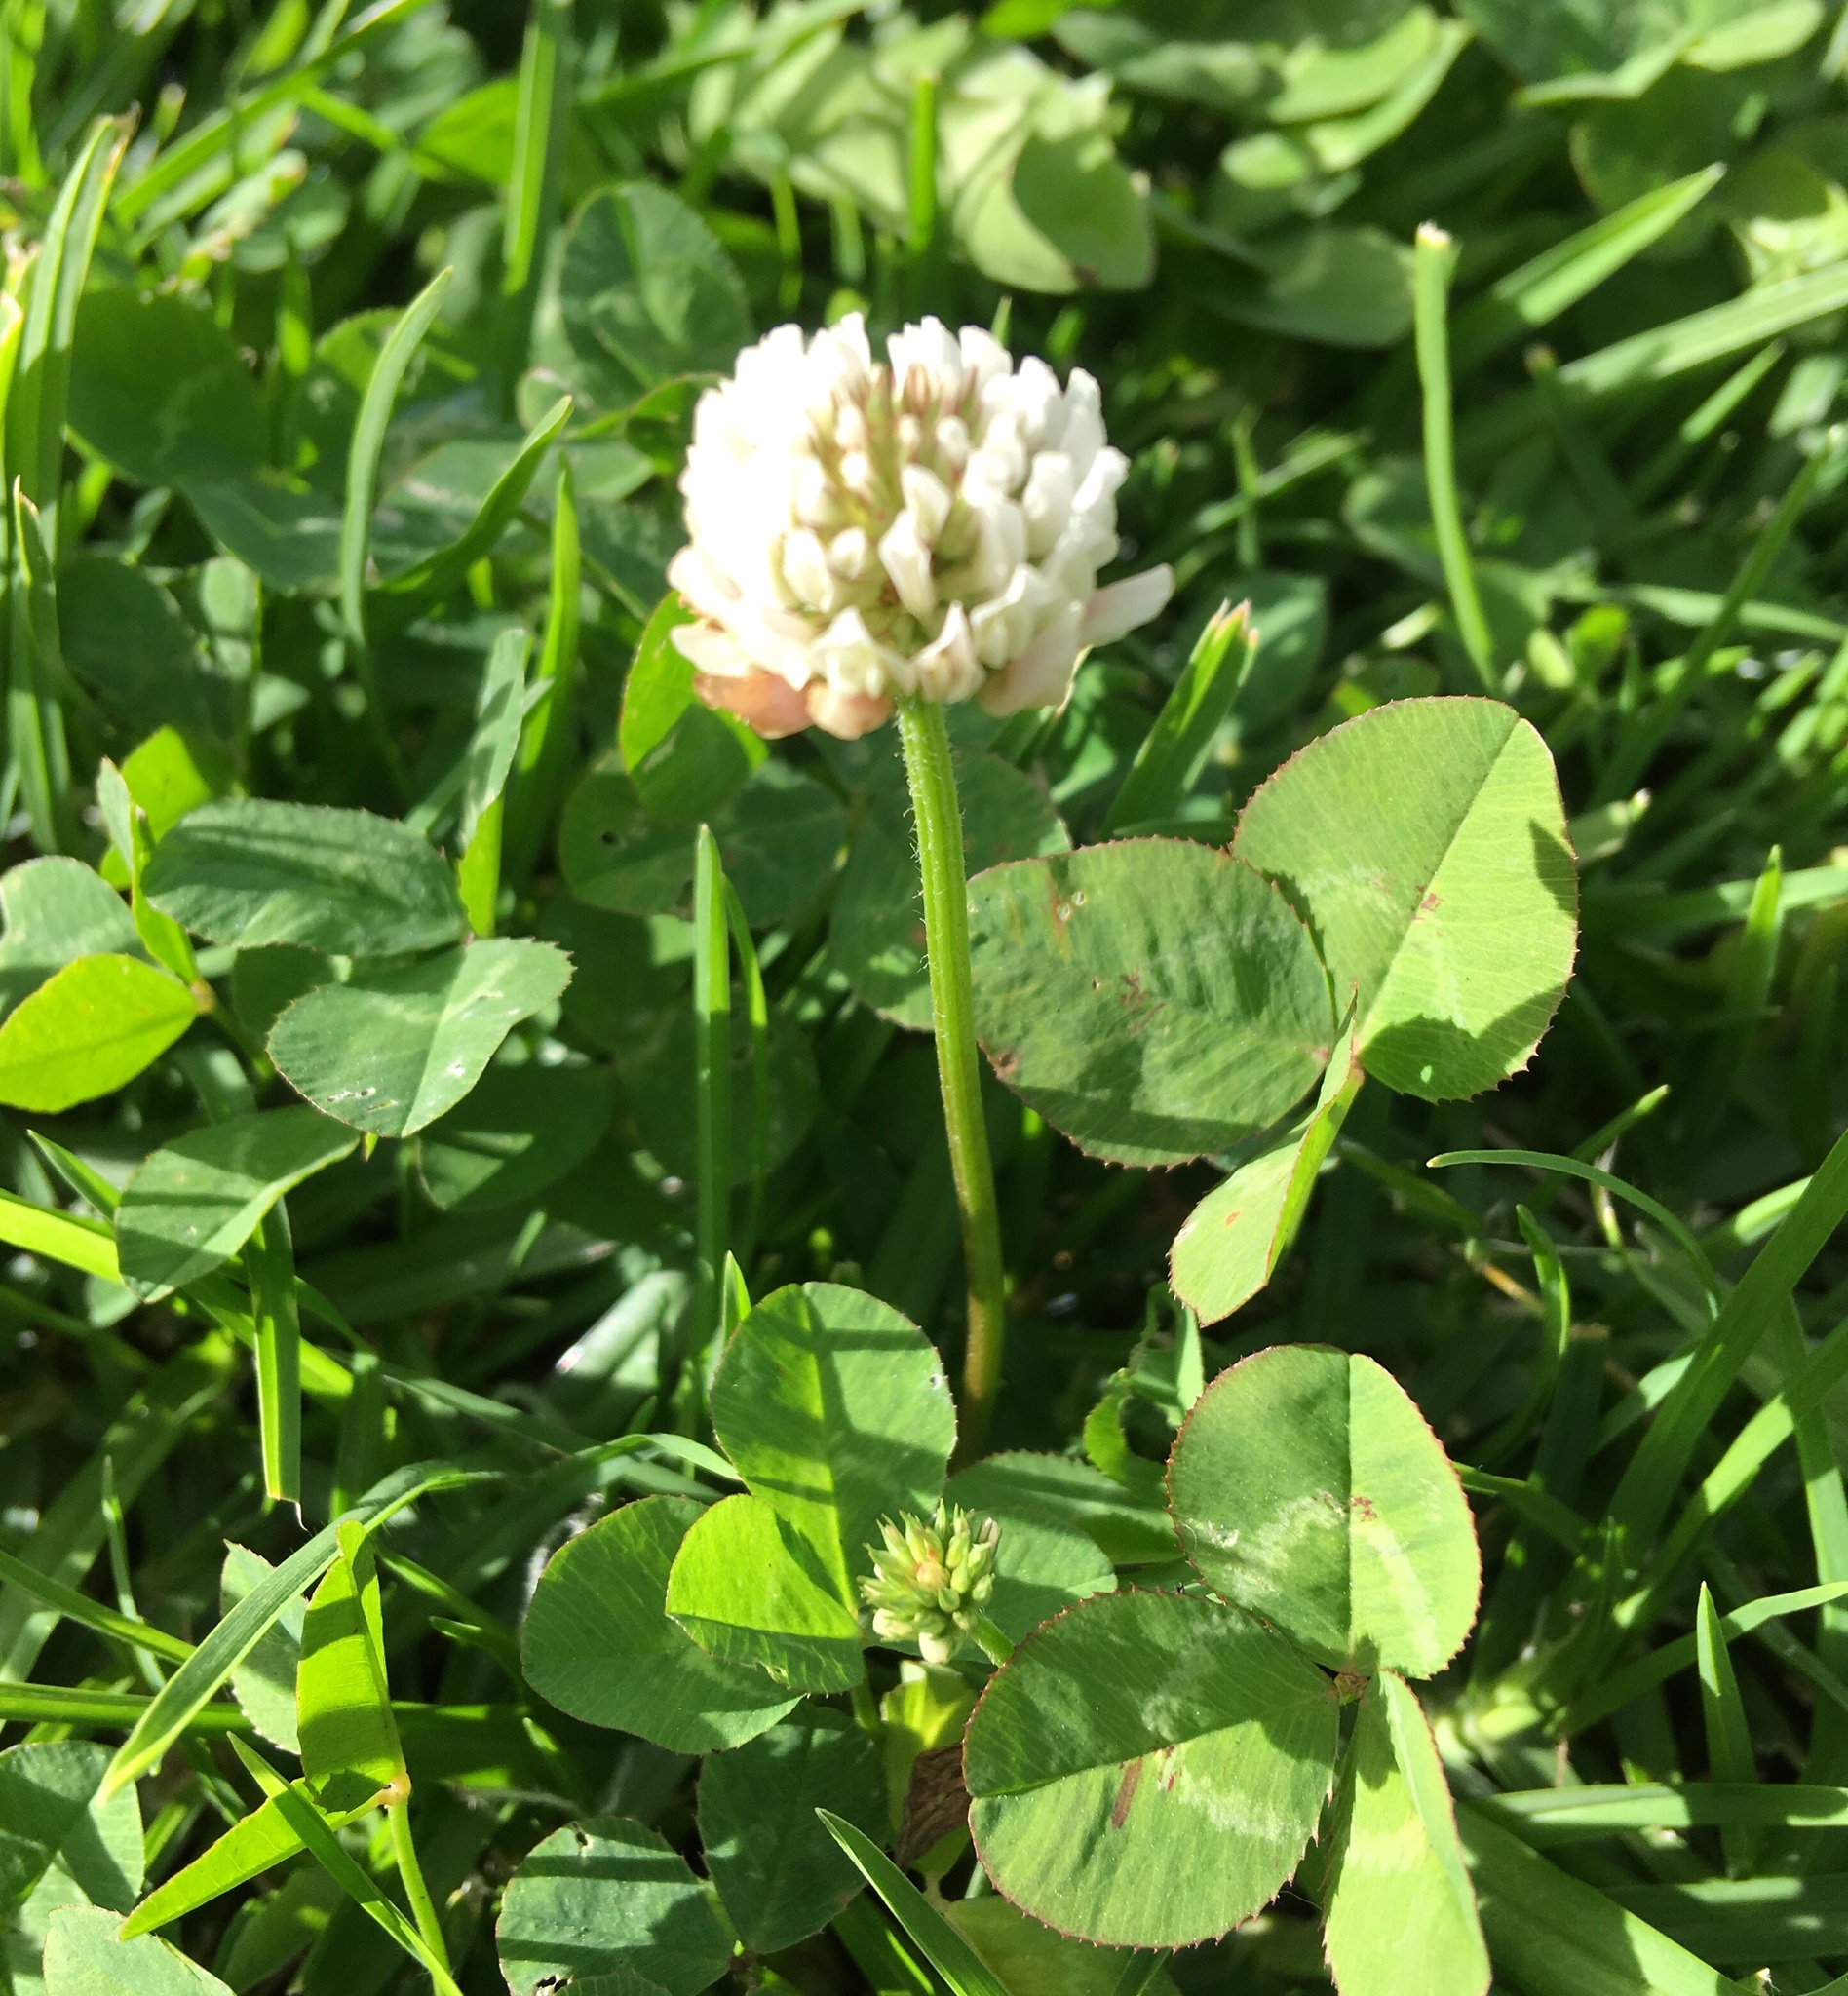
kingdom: Plantae
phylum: Tracheophyta
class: Magnoliopsida
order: Fabales
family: Fabaceae
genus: Trifolium
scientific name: Trifolium repens
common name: White clover
